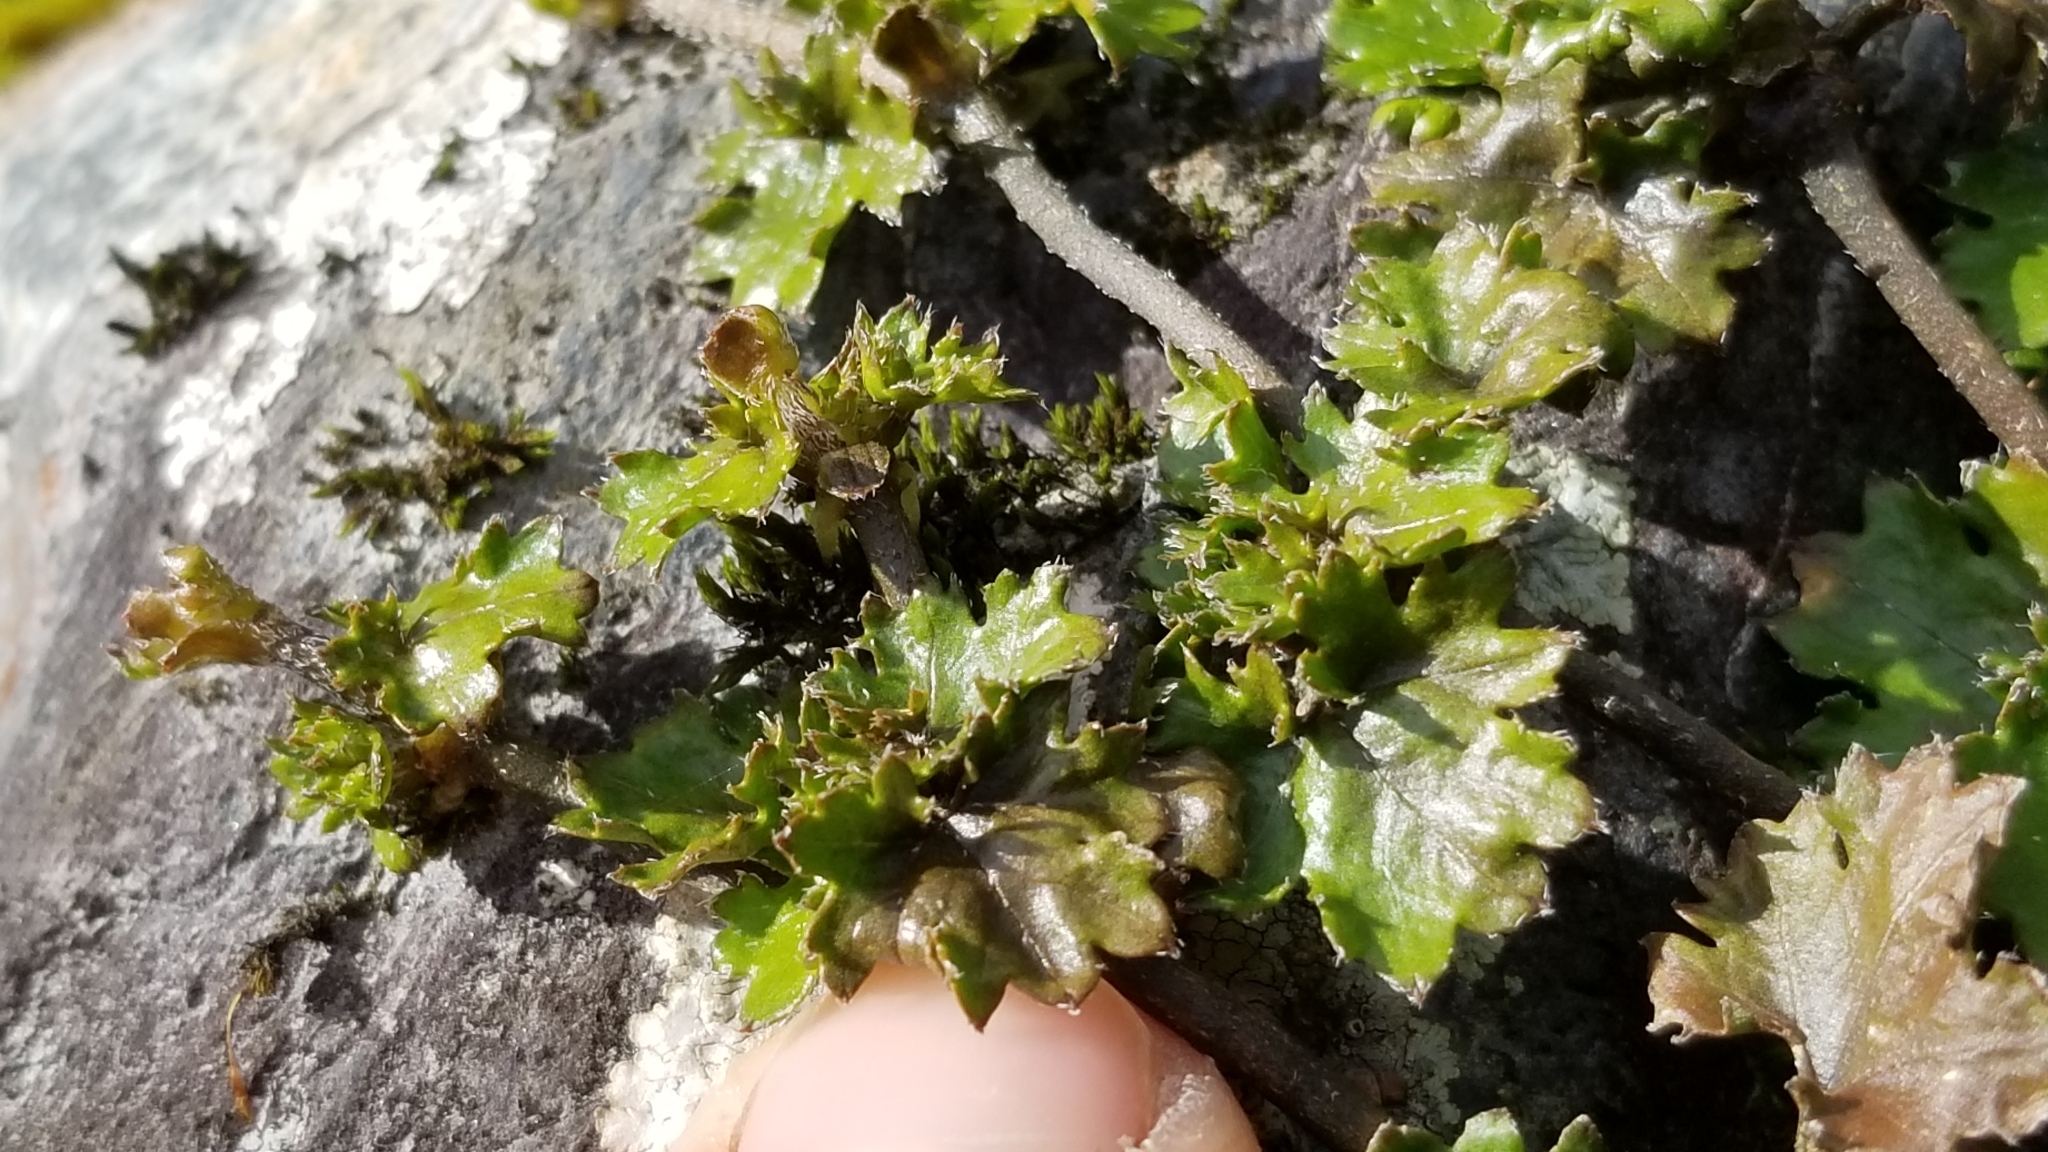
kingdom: Plantae
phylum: Tracheophyta
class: Magnoliopsida
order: Gunnerales
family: Gunneraceae
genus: Gunnera
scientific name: Gunnera monoica
